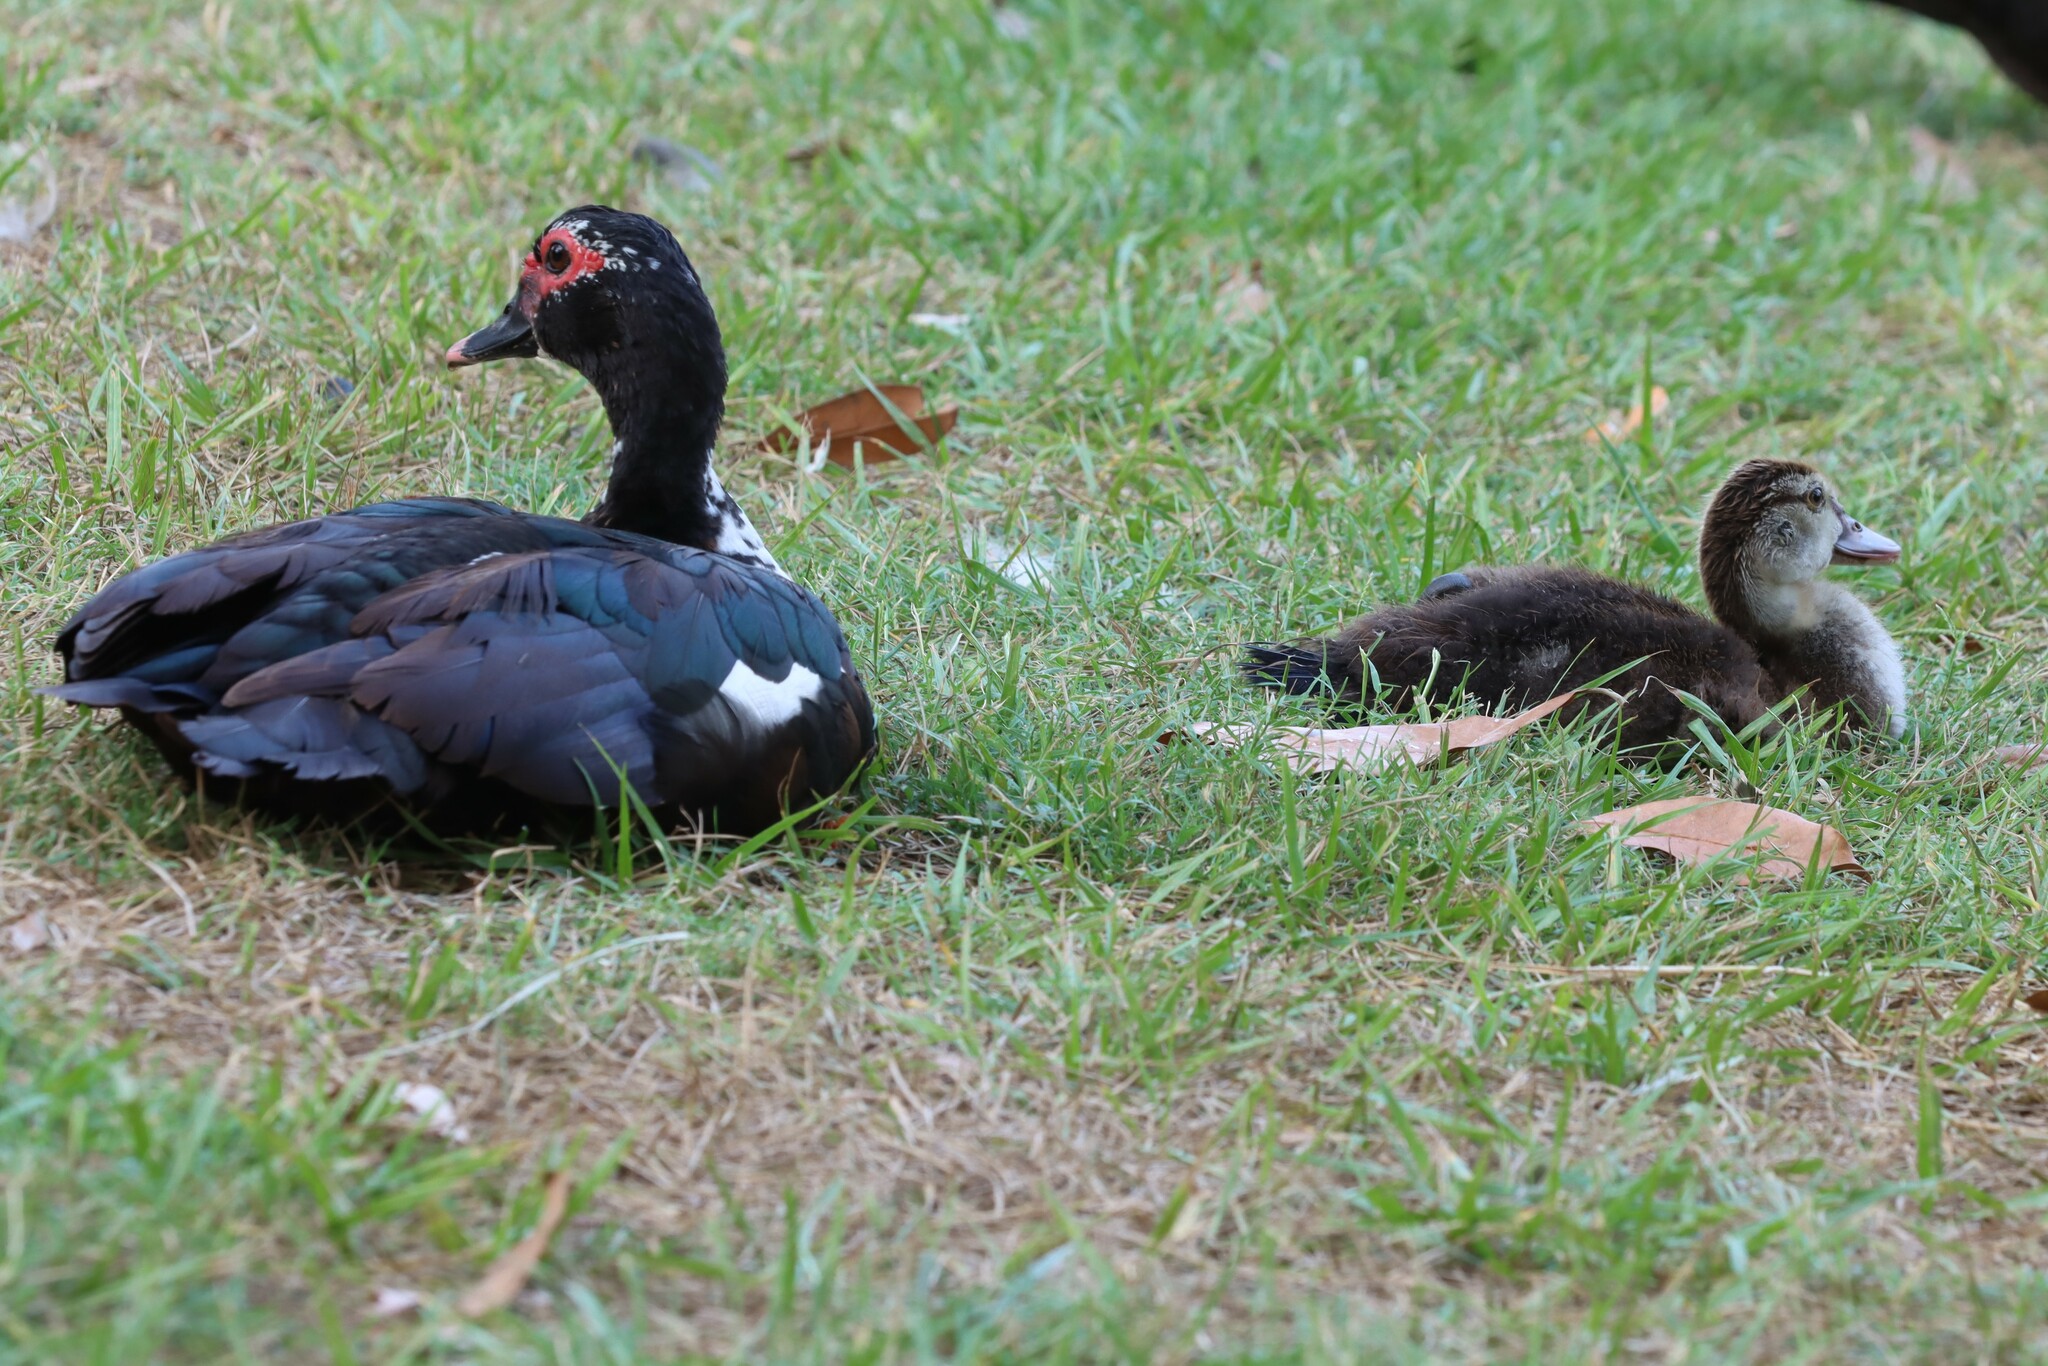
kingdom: Animalia
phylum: Chordata
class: Aves
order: Anseriformes
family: Anatidae
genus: Cairina
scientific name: Cairina moschata
